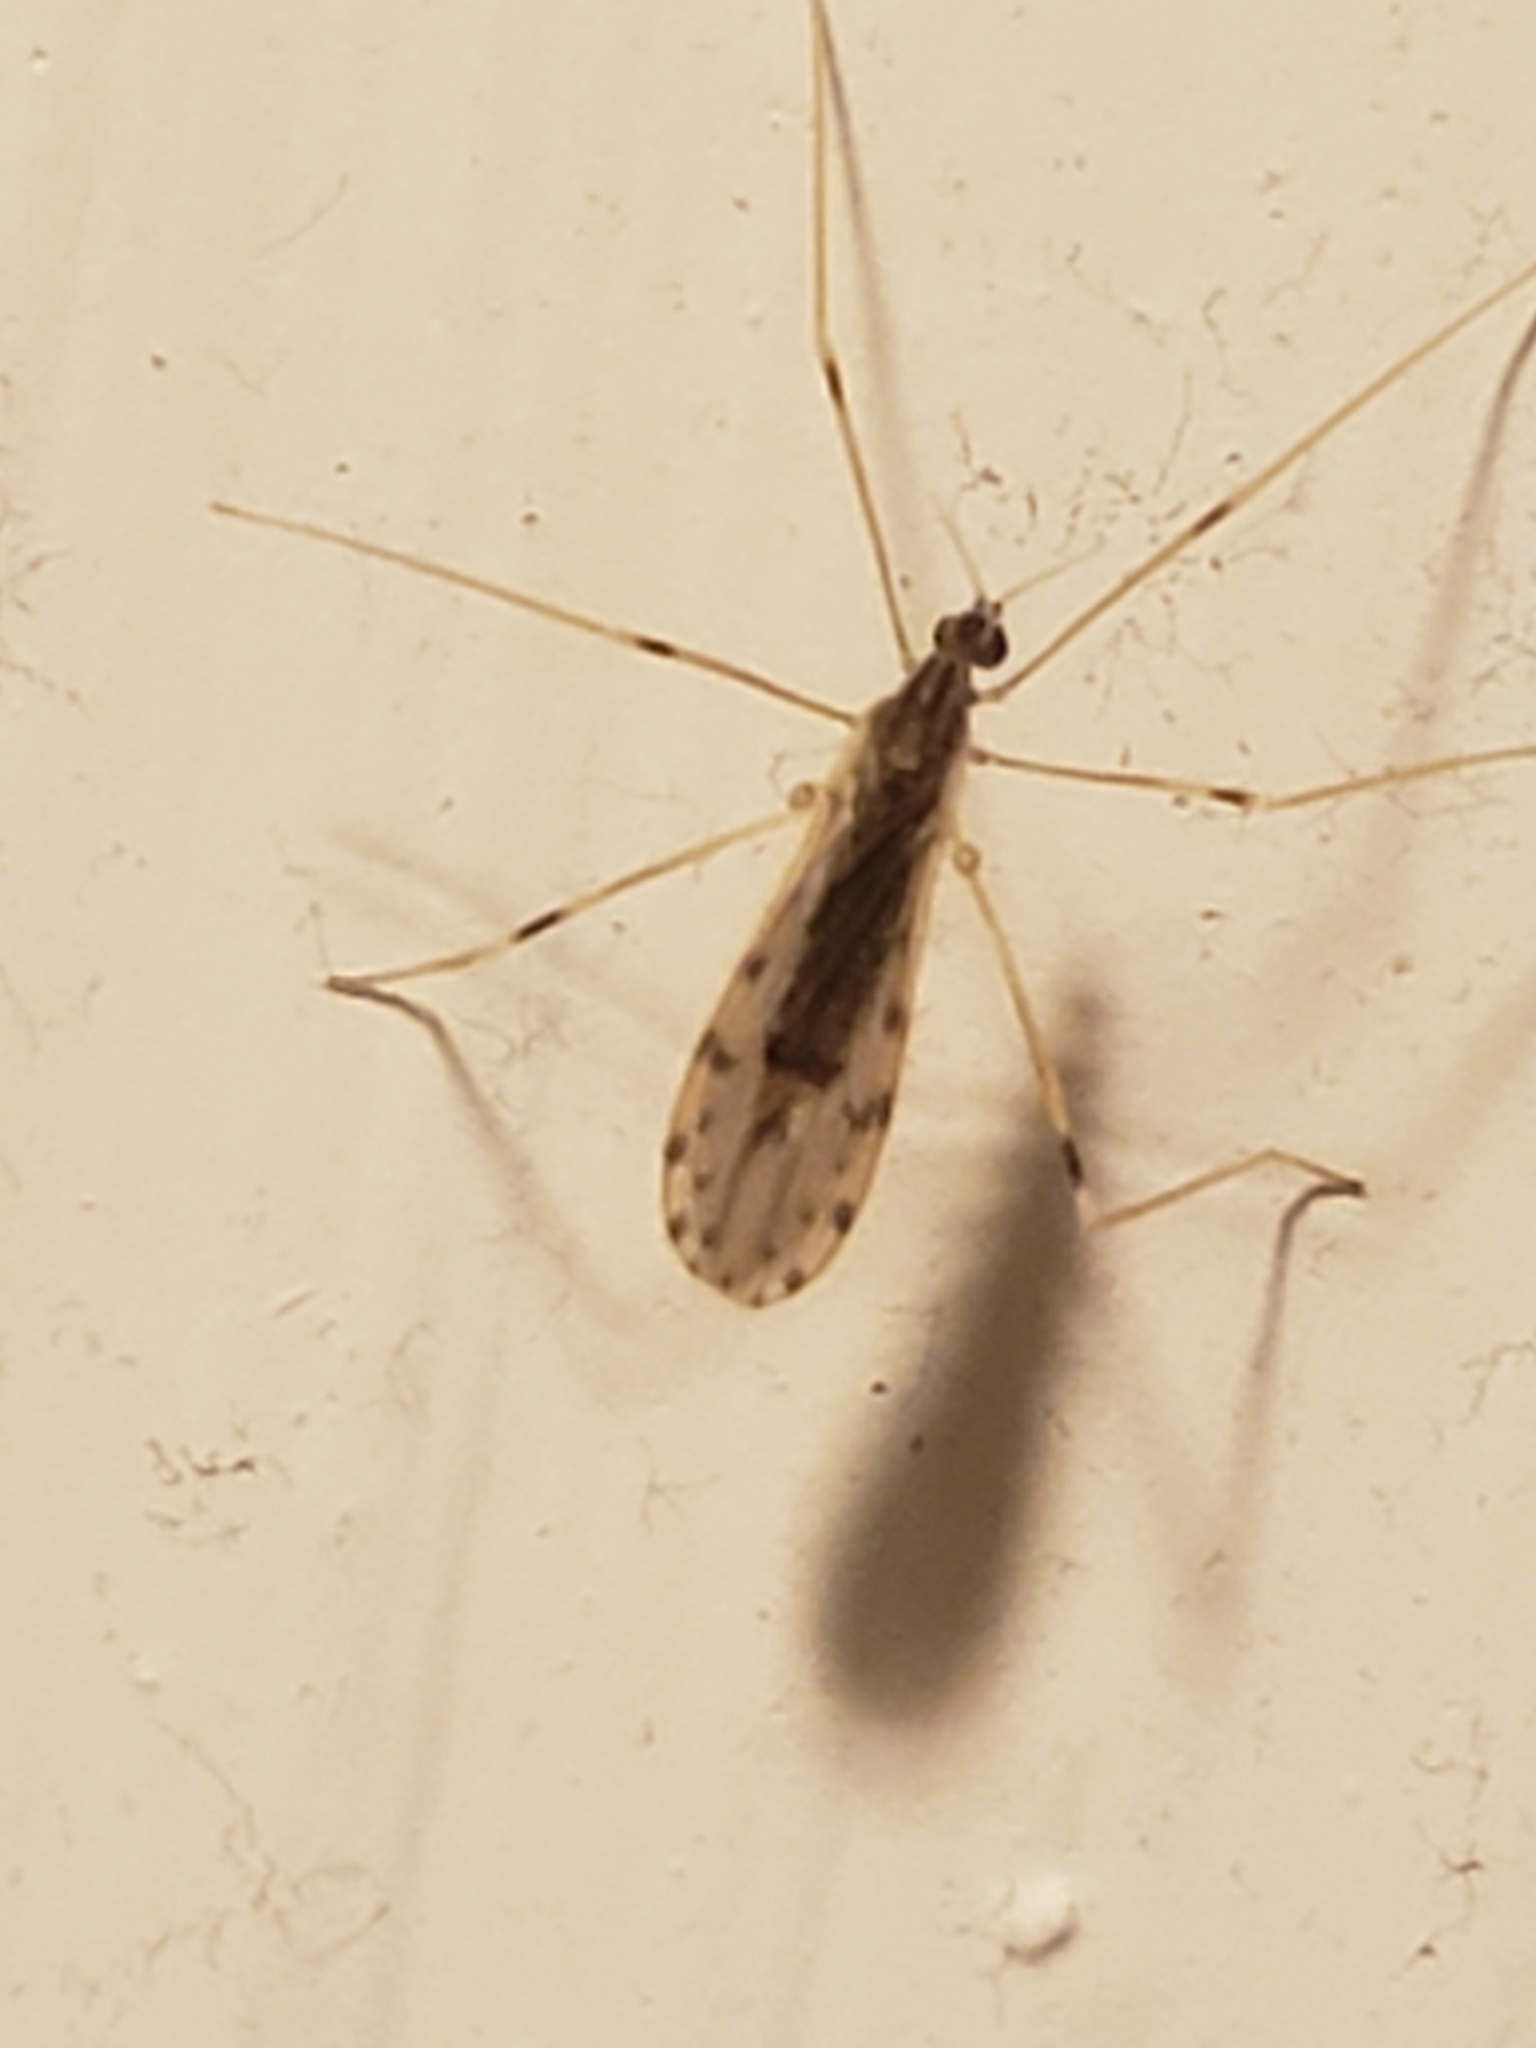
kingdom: Animalia
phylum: Arthropoda
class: Insecta
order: Diptera
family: Limoniidae
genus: Erioptera
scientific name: Erioptera parva
